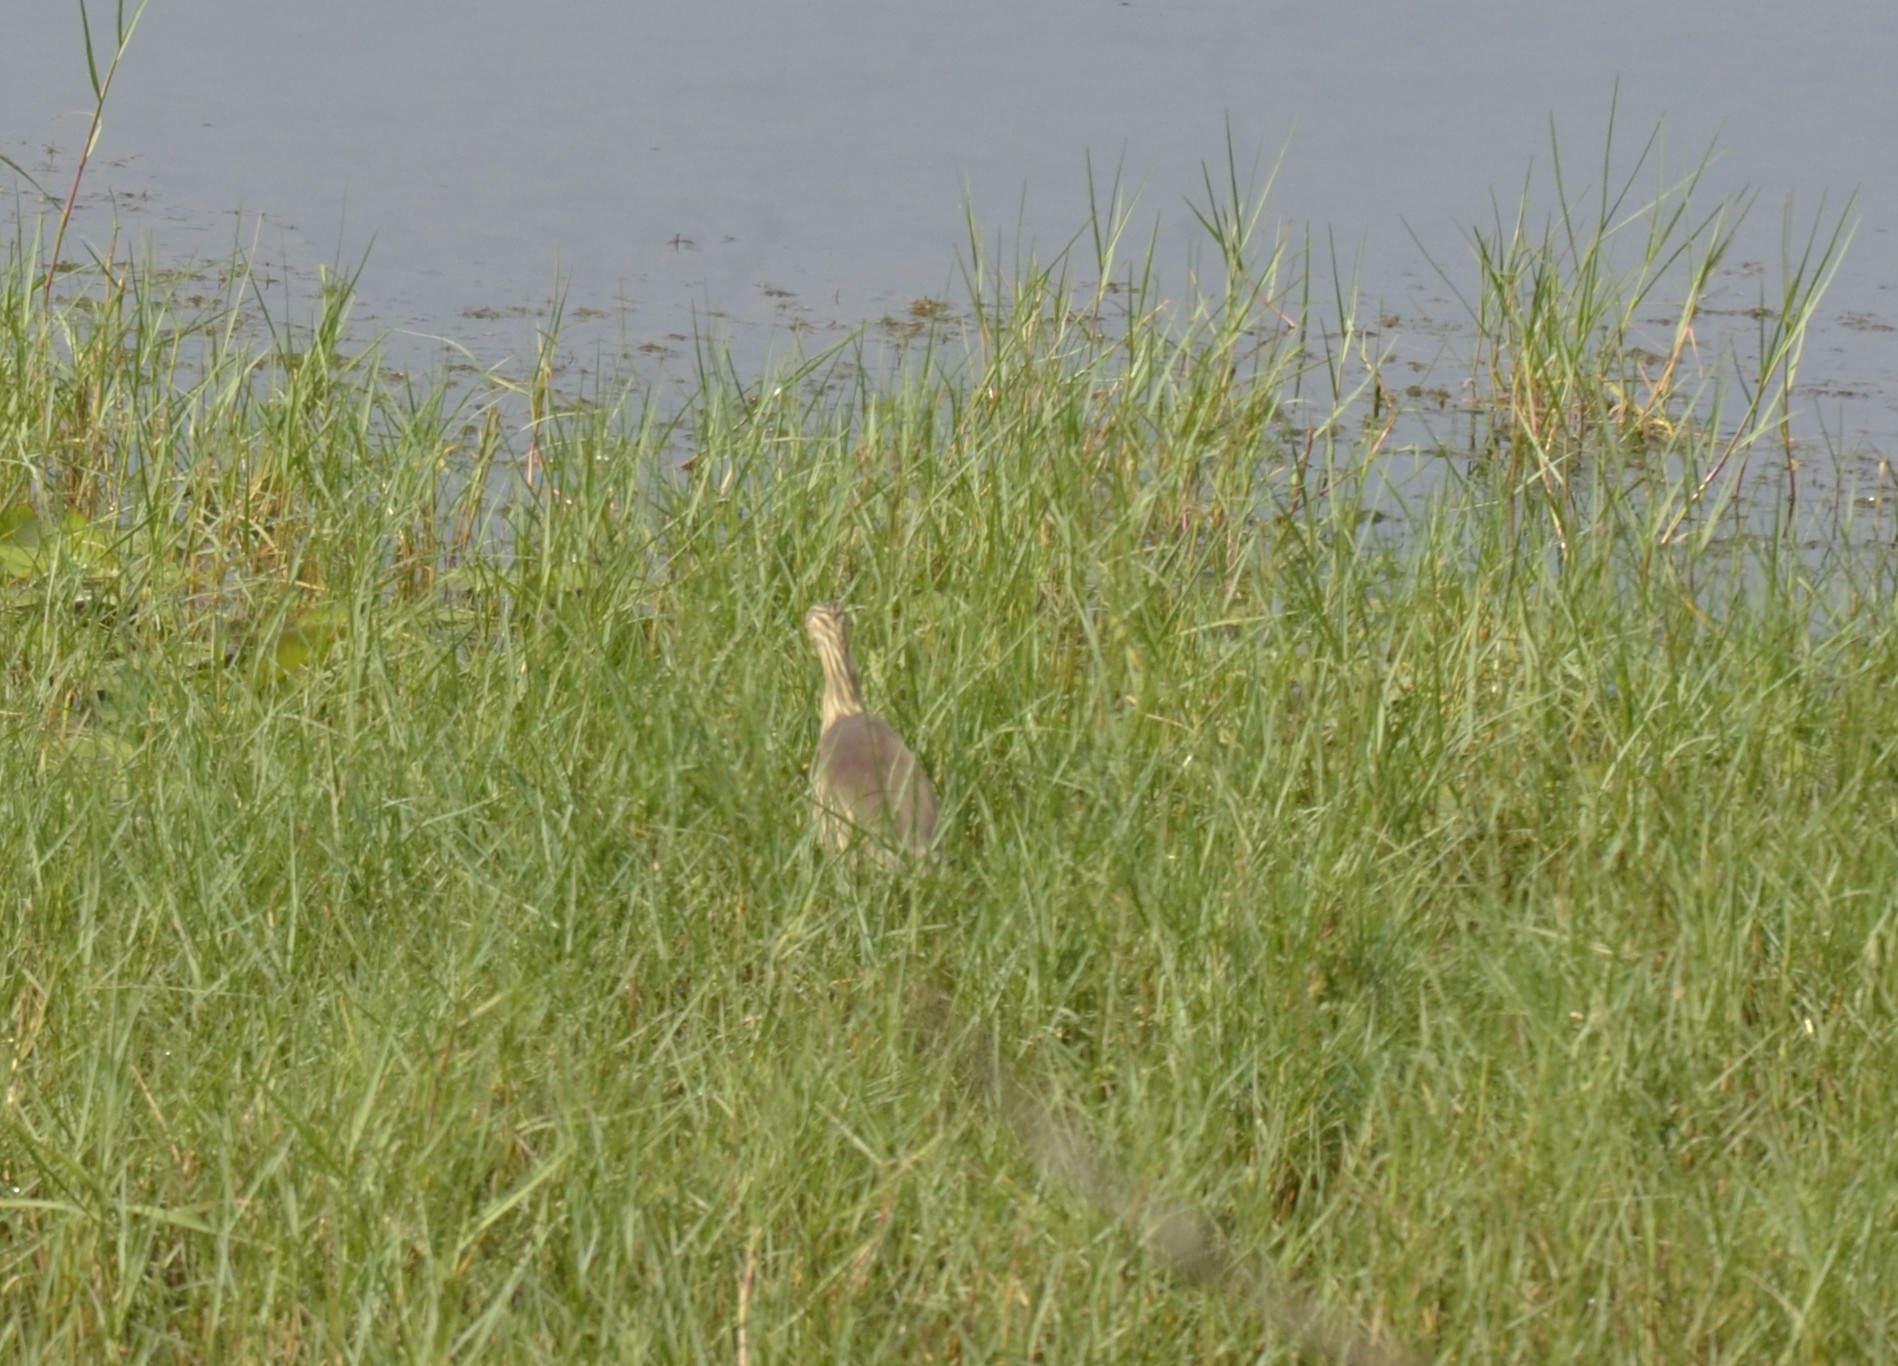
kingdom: Animalia
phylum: Chordata
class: Aves
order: Pelecaniformes
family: Ardeidae
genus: Ardeola
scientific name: Ardeola grayii
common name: Indian pond heron
